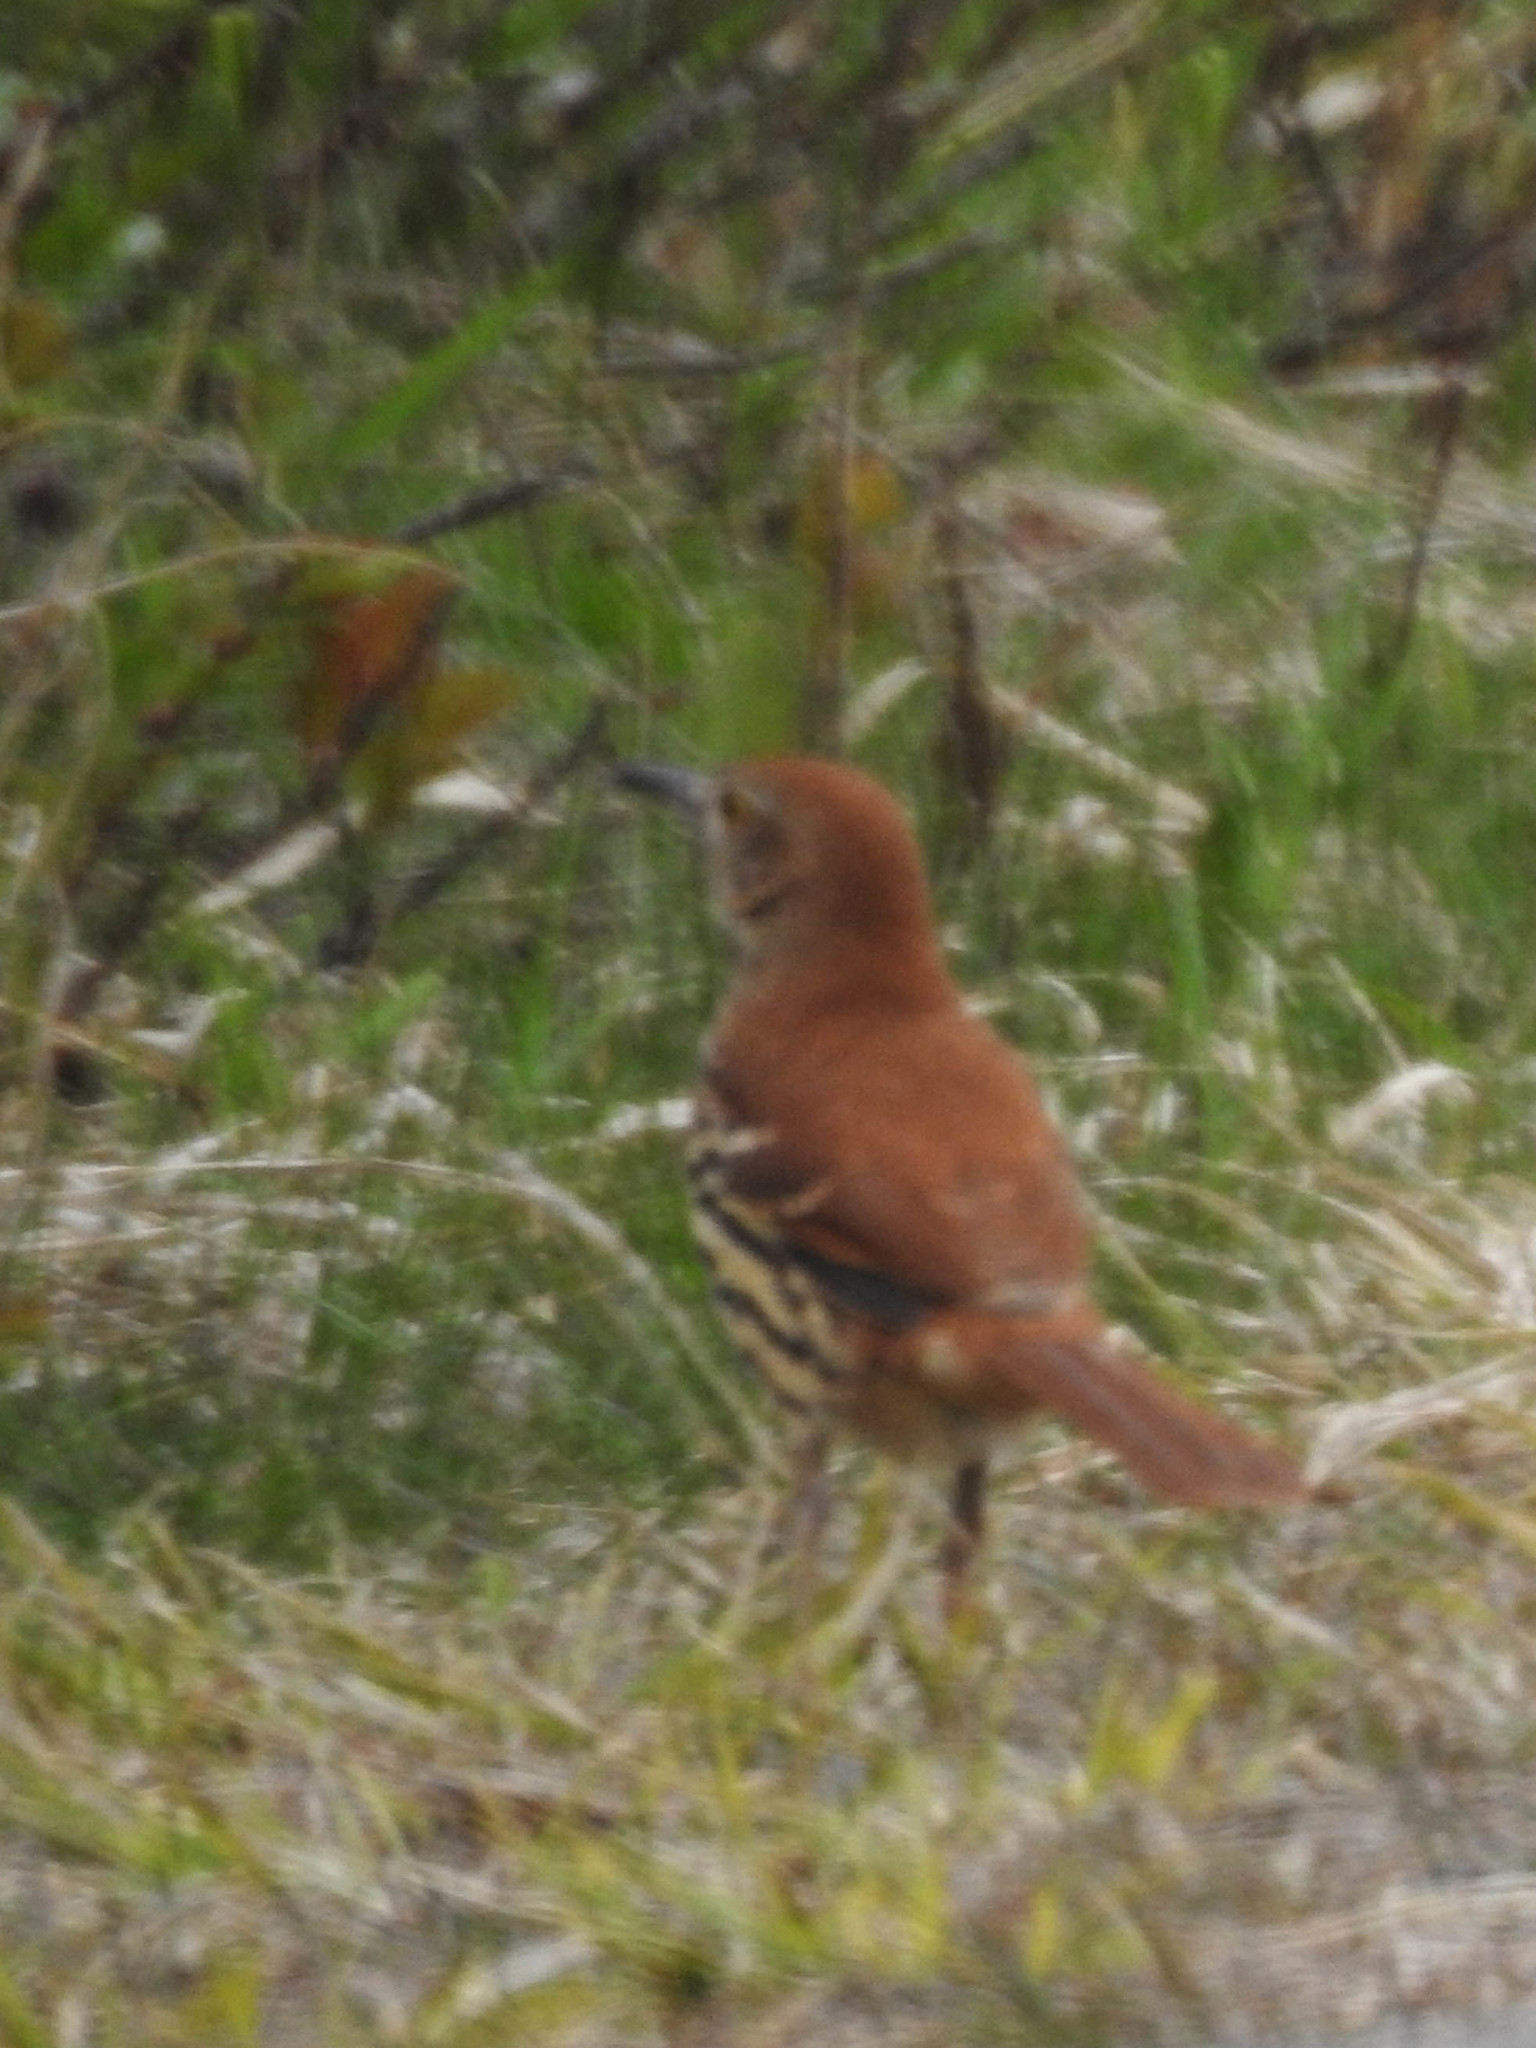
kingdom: Animalia
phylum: Chordata
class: Aves
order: Passeriformes
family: Mimidae
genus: Toxostoma
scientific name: Toxostoma rufum
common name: Brown thrasher
